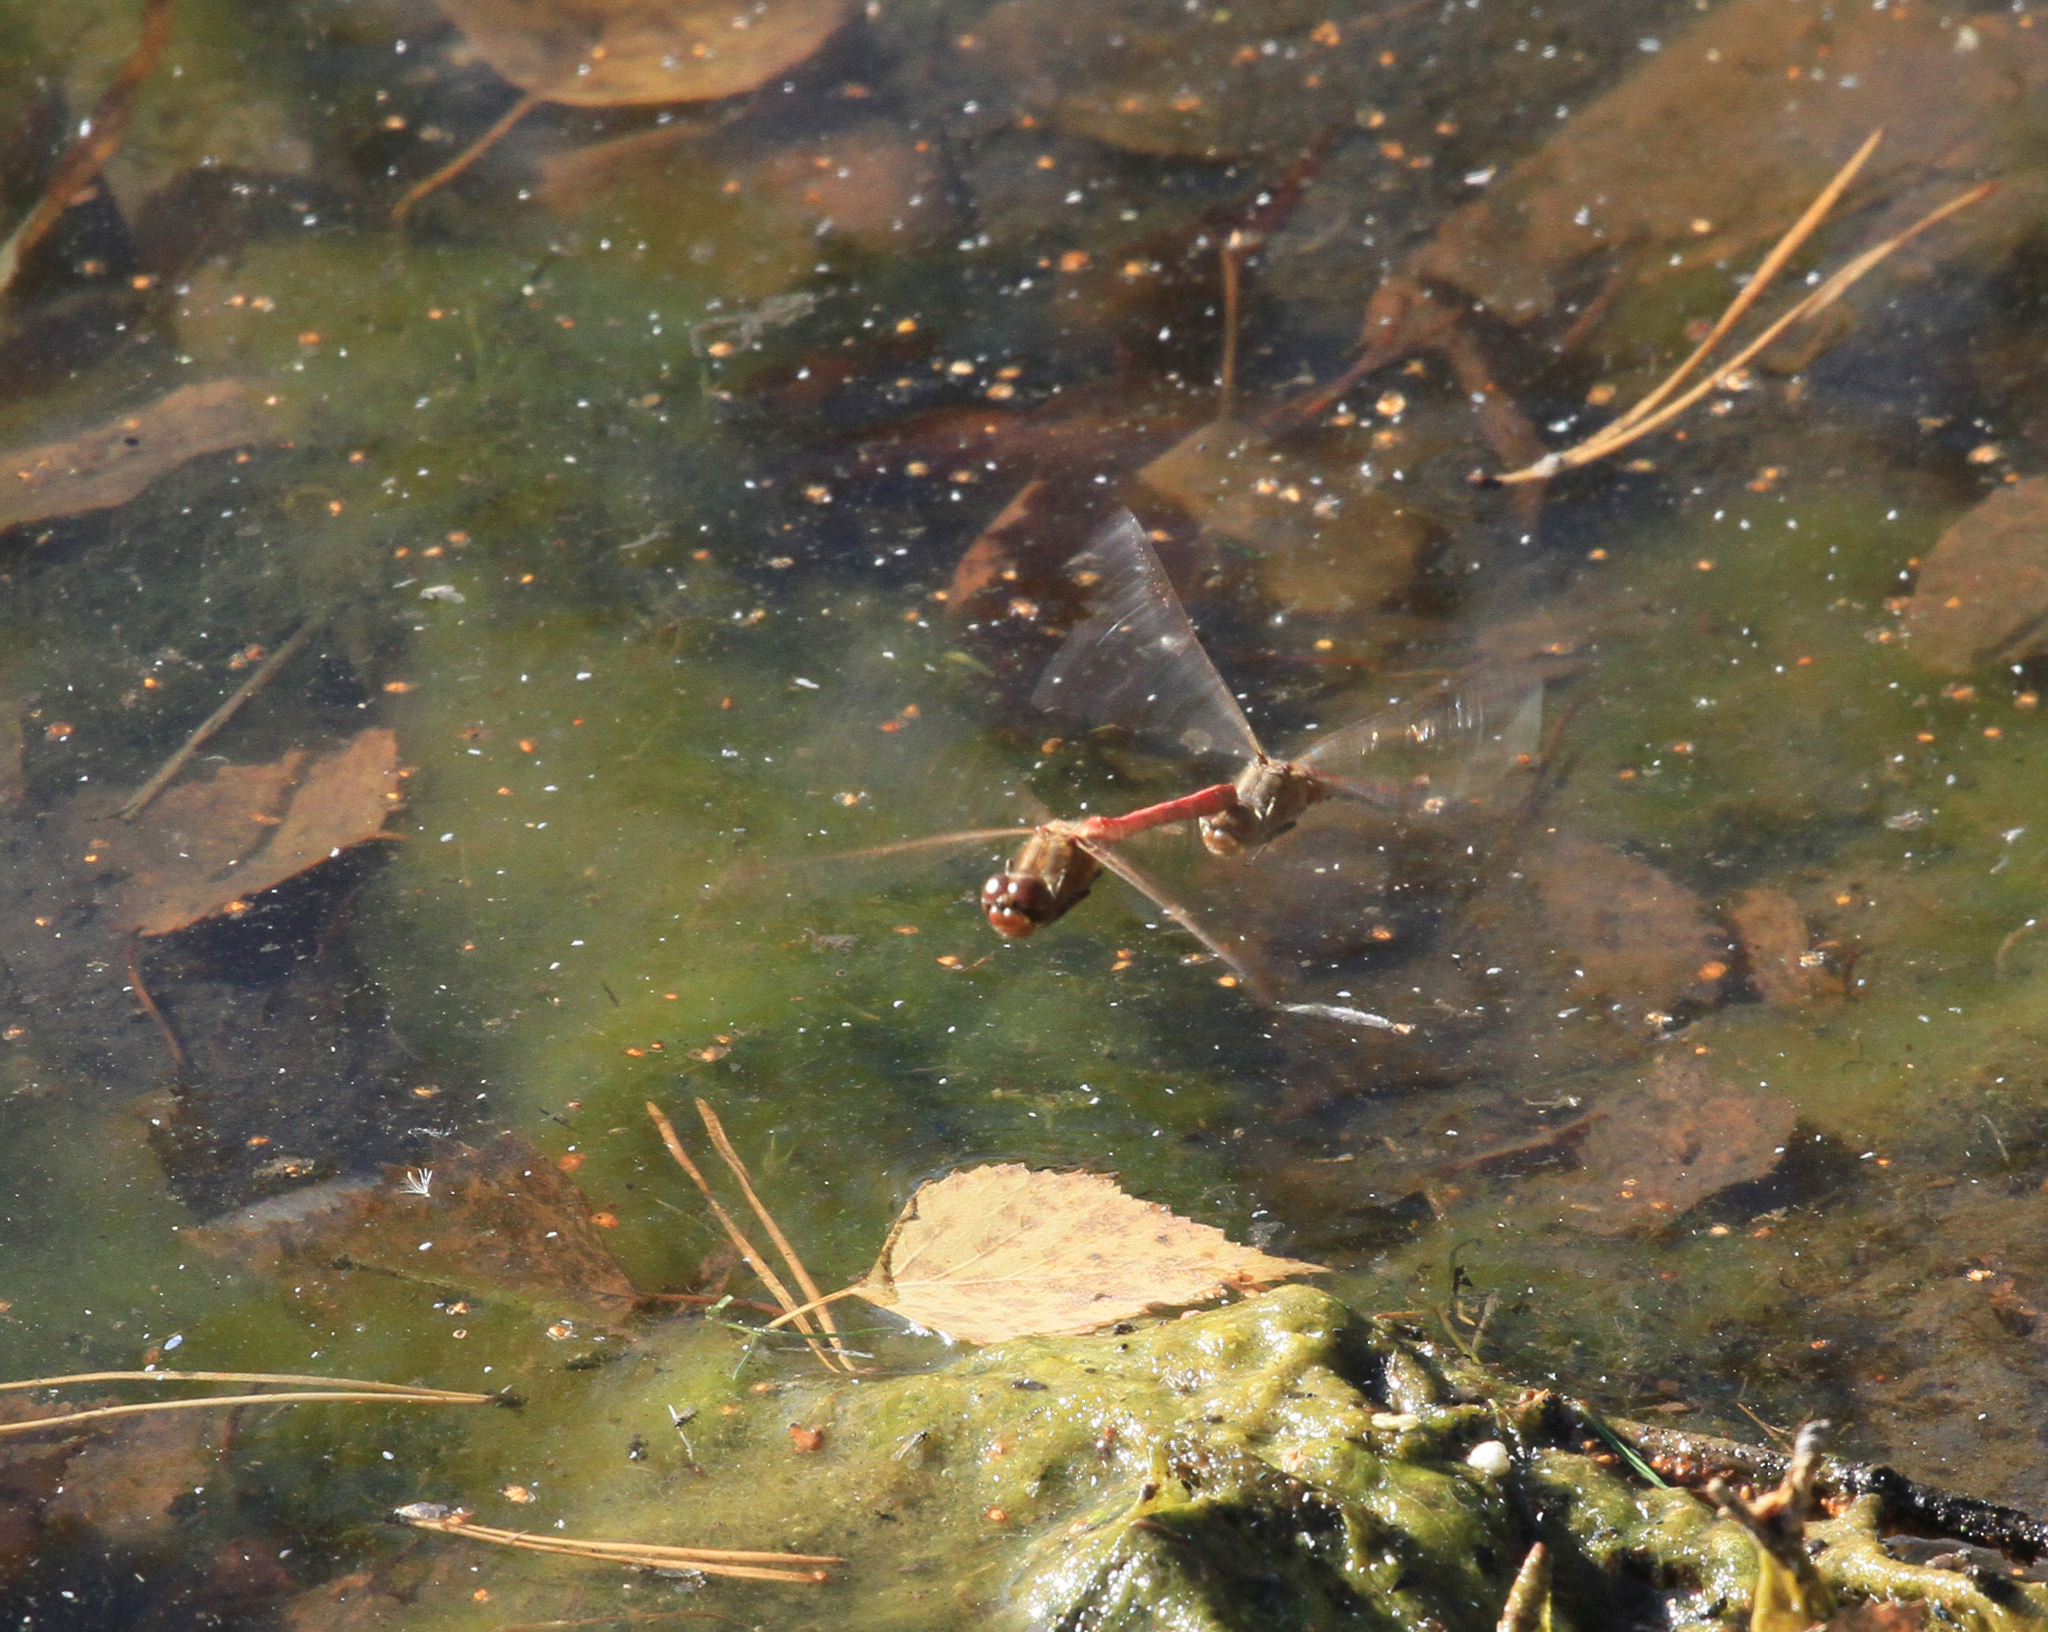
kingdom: Animalia
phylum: Arthropoda
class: Insecta
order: Odonata
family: Libellulidae
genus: Sympetrum
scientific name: Sympetrum vulgatum
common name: Vagrant darter
